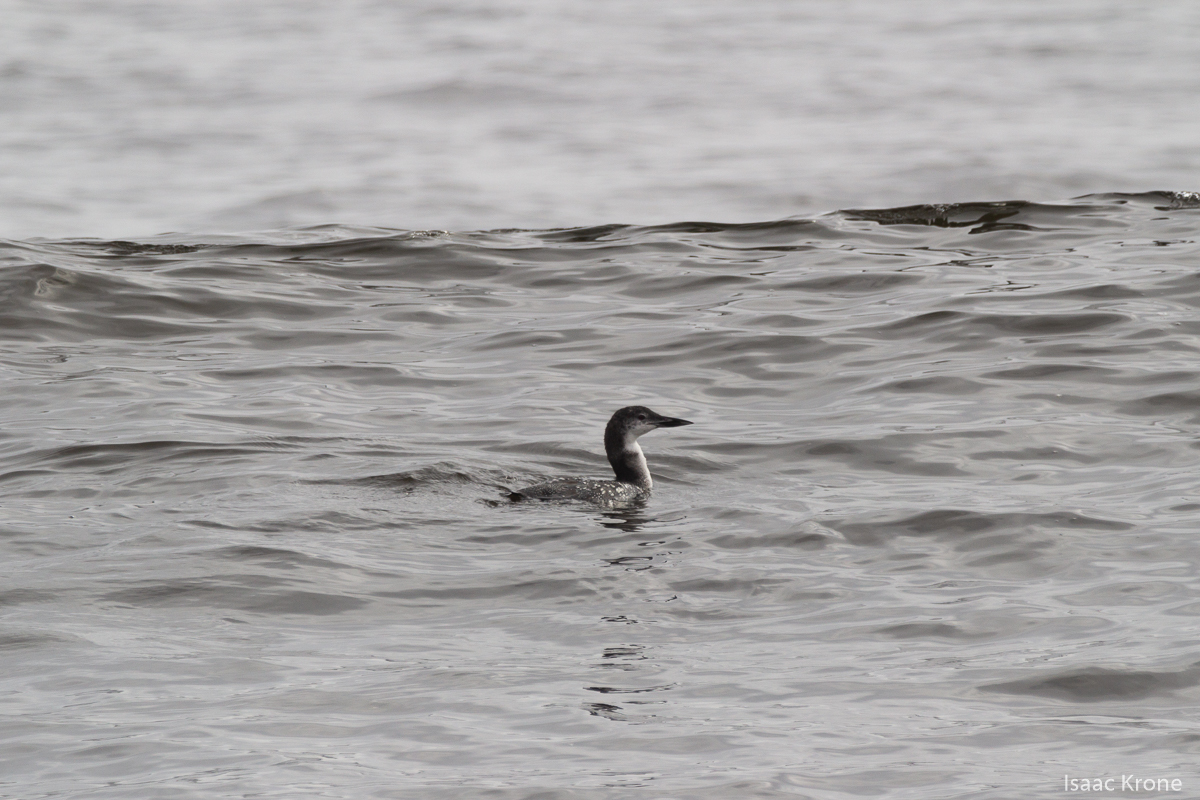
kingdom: Animalia
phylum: Chordata
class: Aves
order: Gaviiformes
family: Gaviidae
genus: Gavia
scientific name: Gavia immer
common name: Common loon
